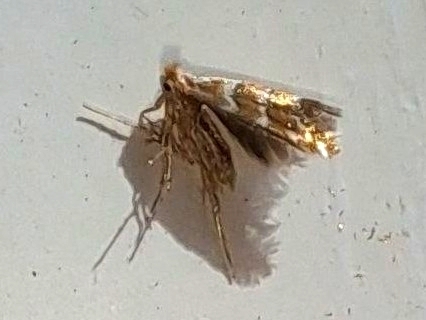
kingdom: Animalia
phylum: Arthropoda
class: Insecta
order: Lepidoptera
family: Gracillariidae
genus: Cameraria
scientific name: Cameraria ohridella
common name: Horse-chestnut leaf-miner
